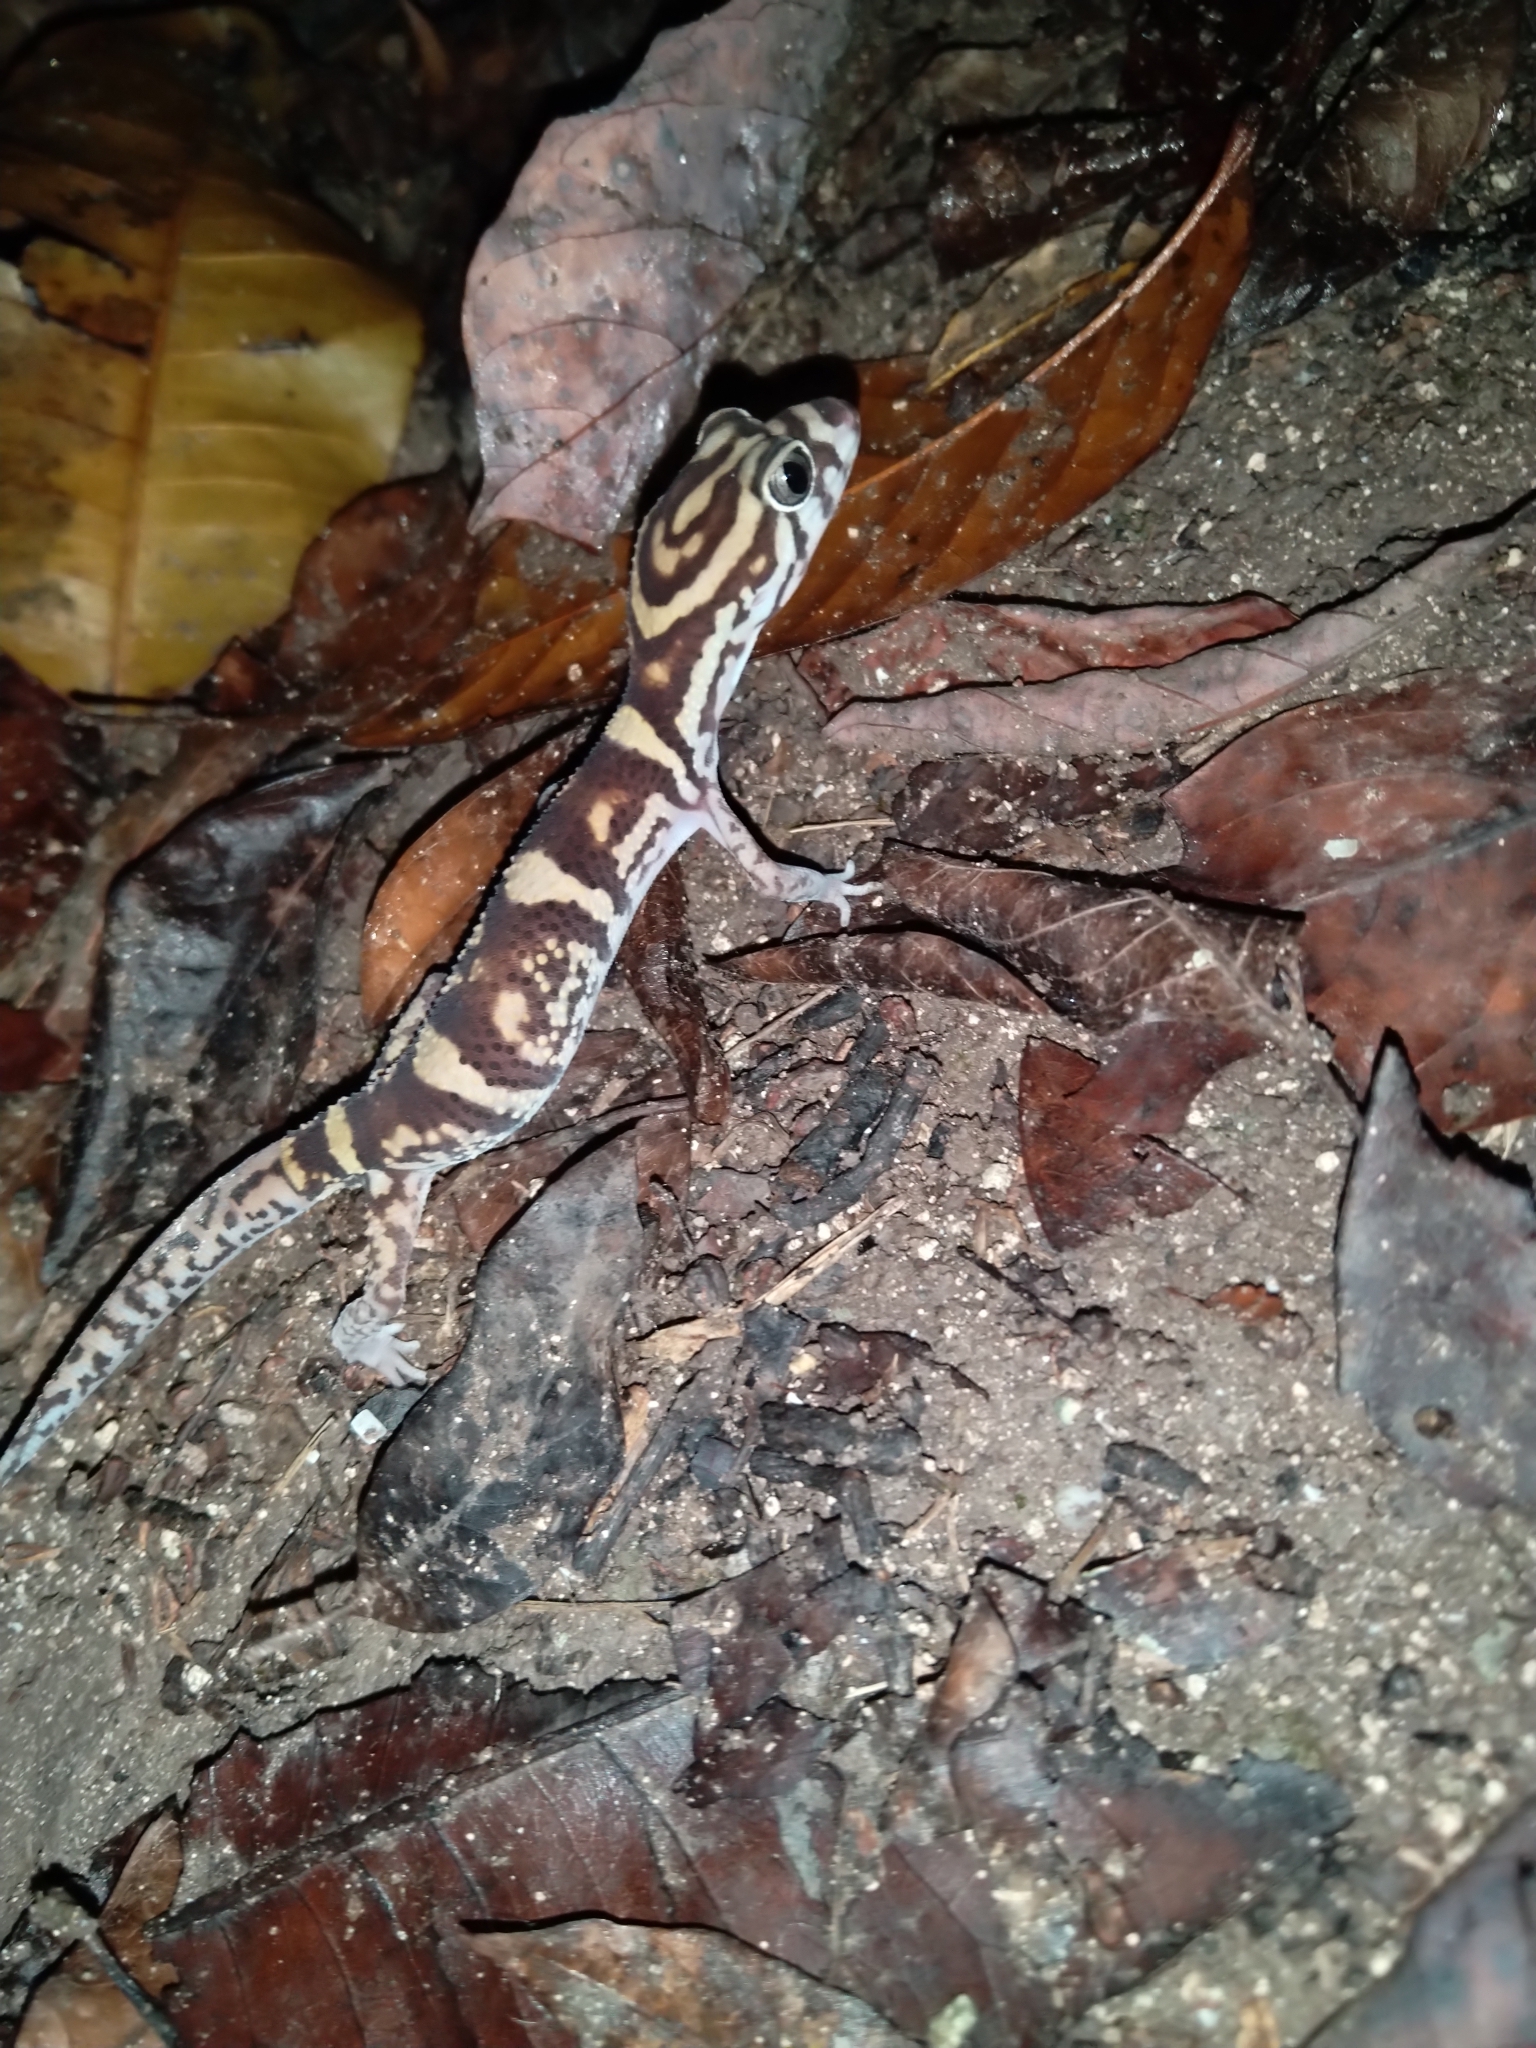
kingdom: Animalia
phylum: Chordata
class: Squamata
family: Eublepharidae
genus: Coleonyx
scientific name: Coleonyx elegans
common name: Yucatan banded gecko
